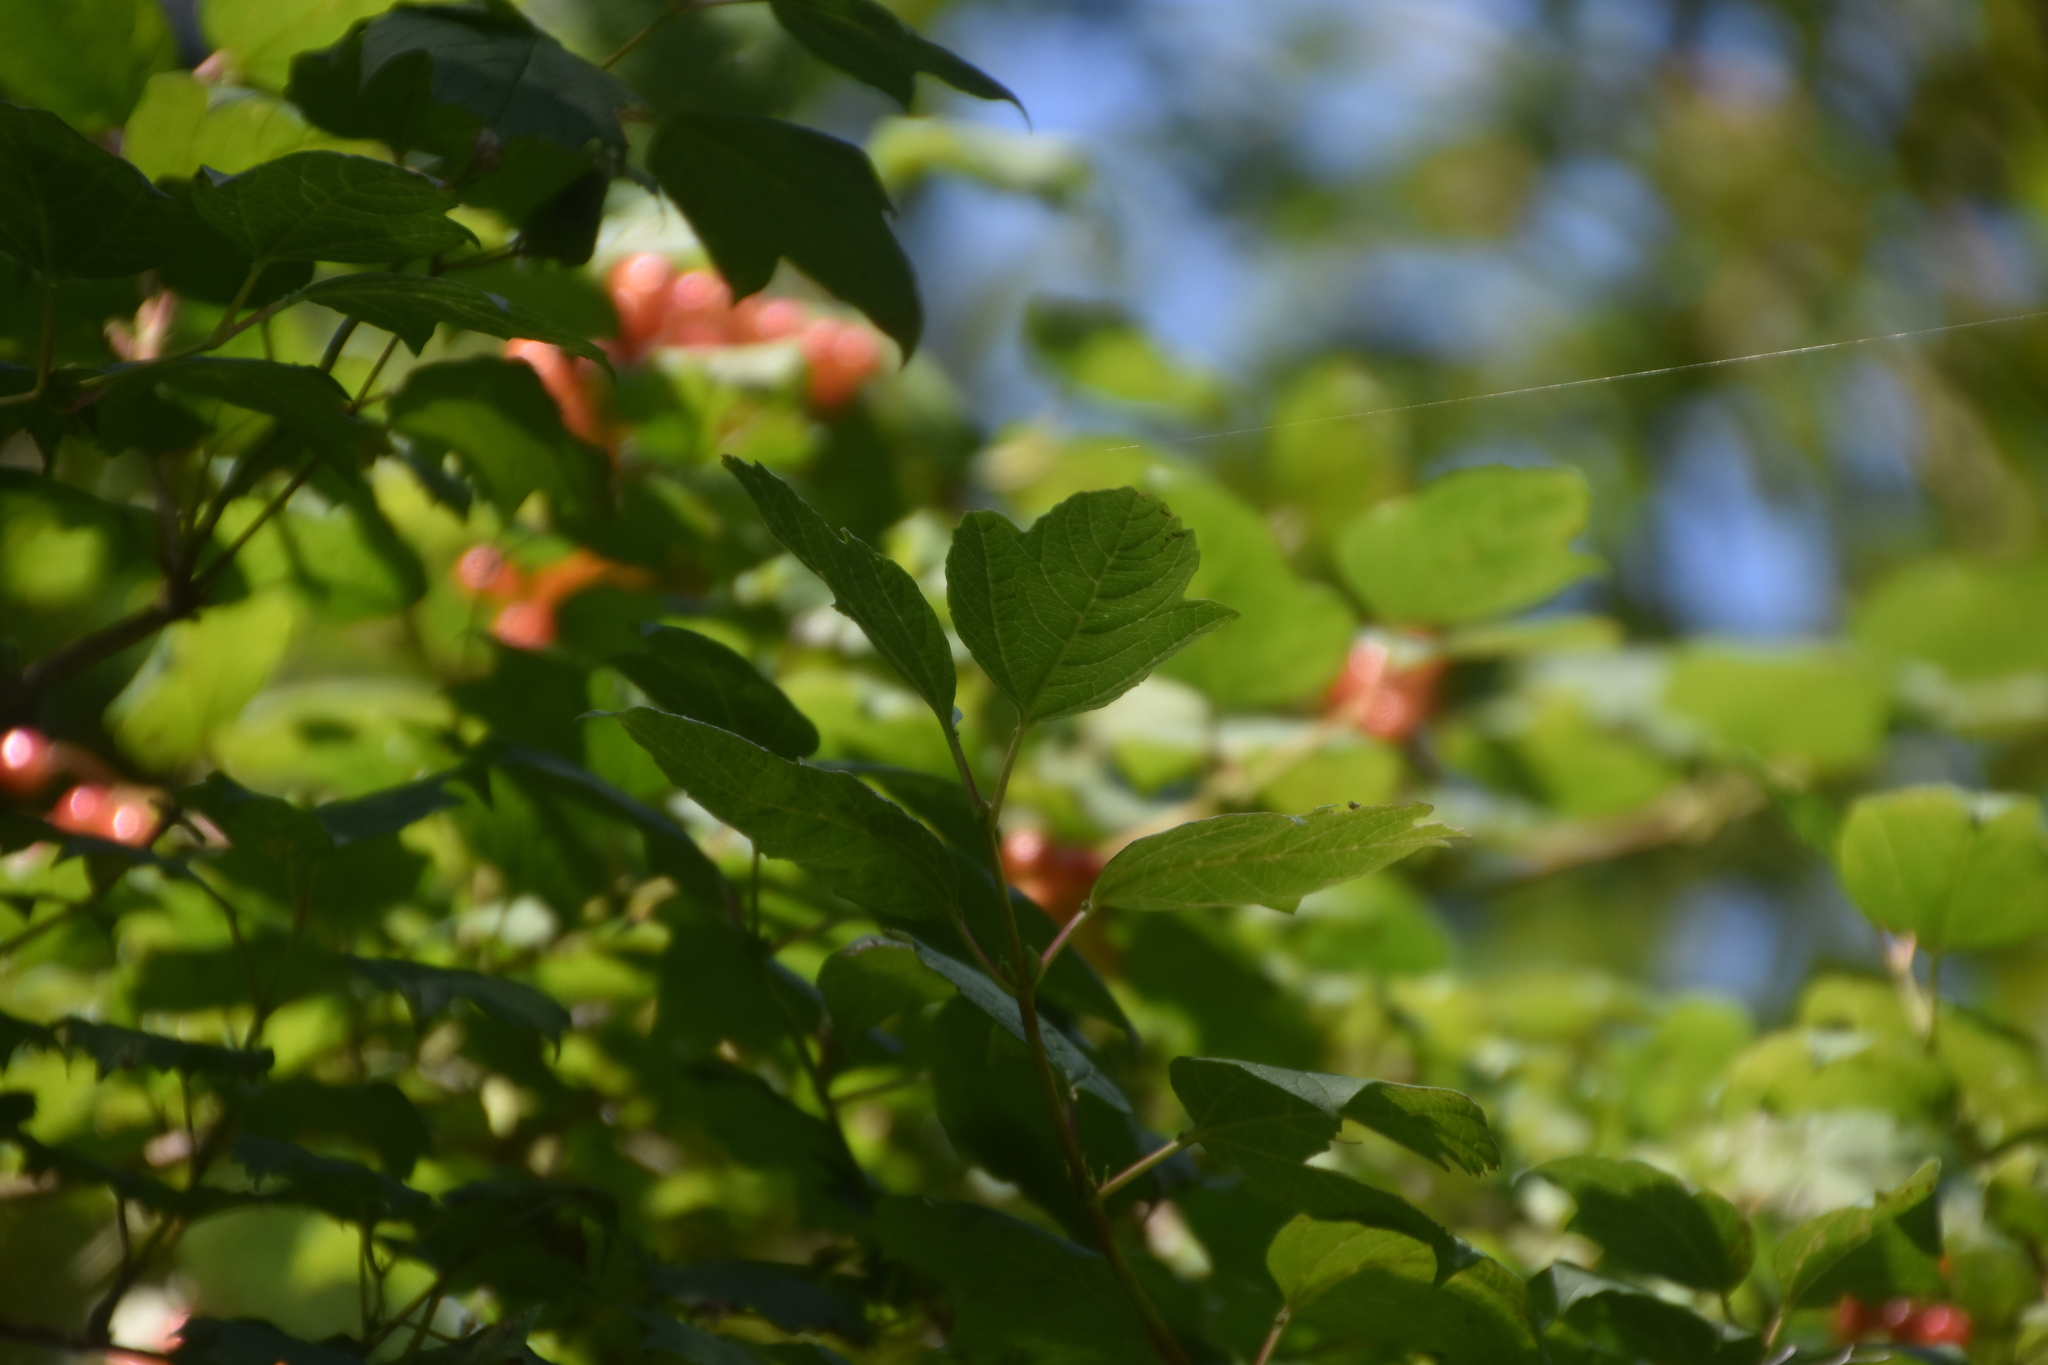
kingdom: Plantae
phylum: Tracheophyta
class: Magnoliopsida
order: Dipsacales
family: Viburnaceae
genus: Viburnum
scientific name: Viburnum opulus
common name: Guelder-rose
